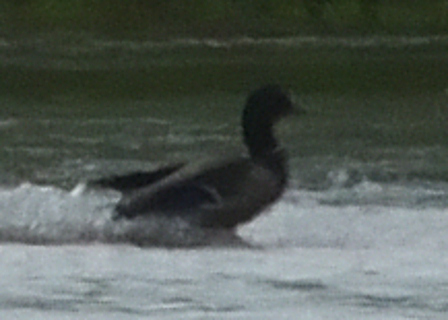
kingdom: Animalia
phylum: Chordata
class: Aves
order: Anseriformes
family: Anatidae
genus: Anas
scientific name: Anas platyrhynchos
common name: Mallard
